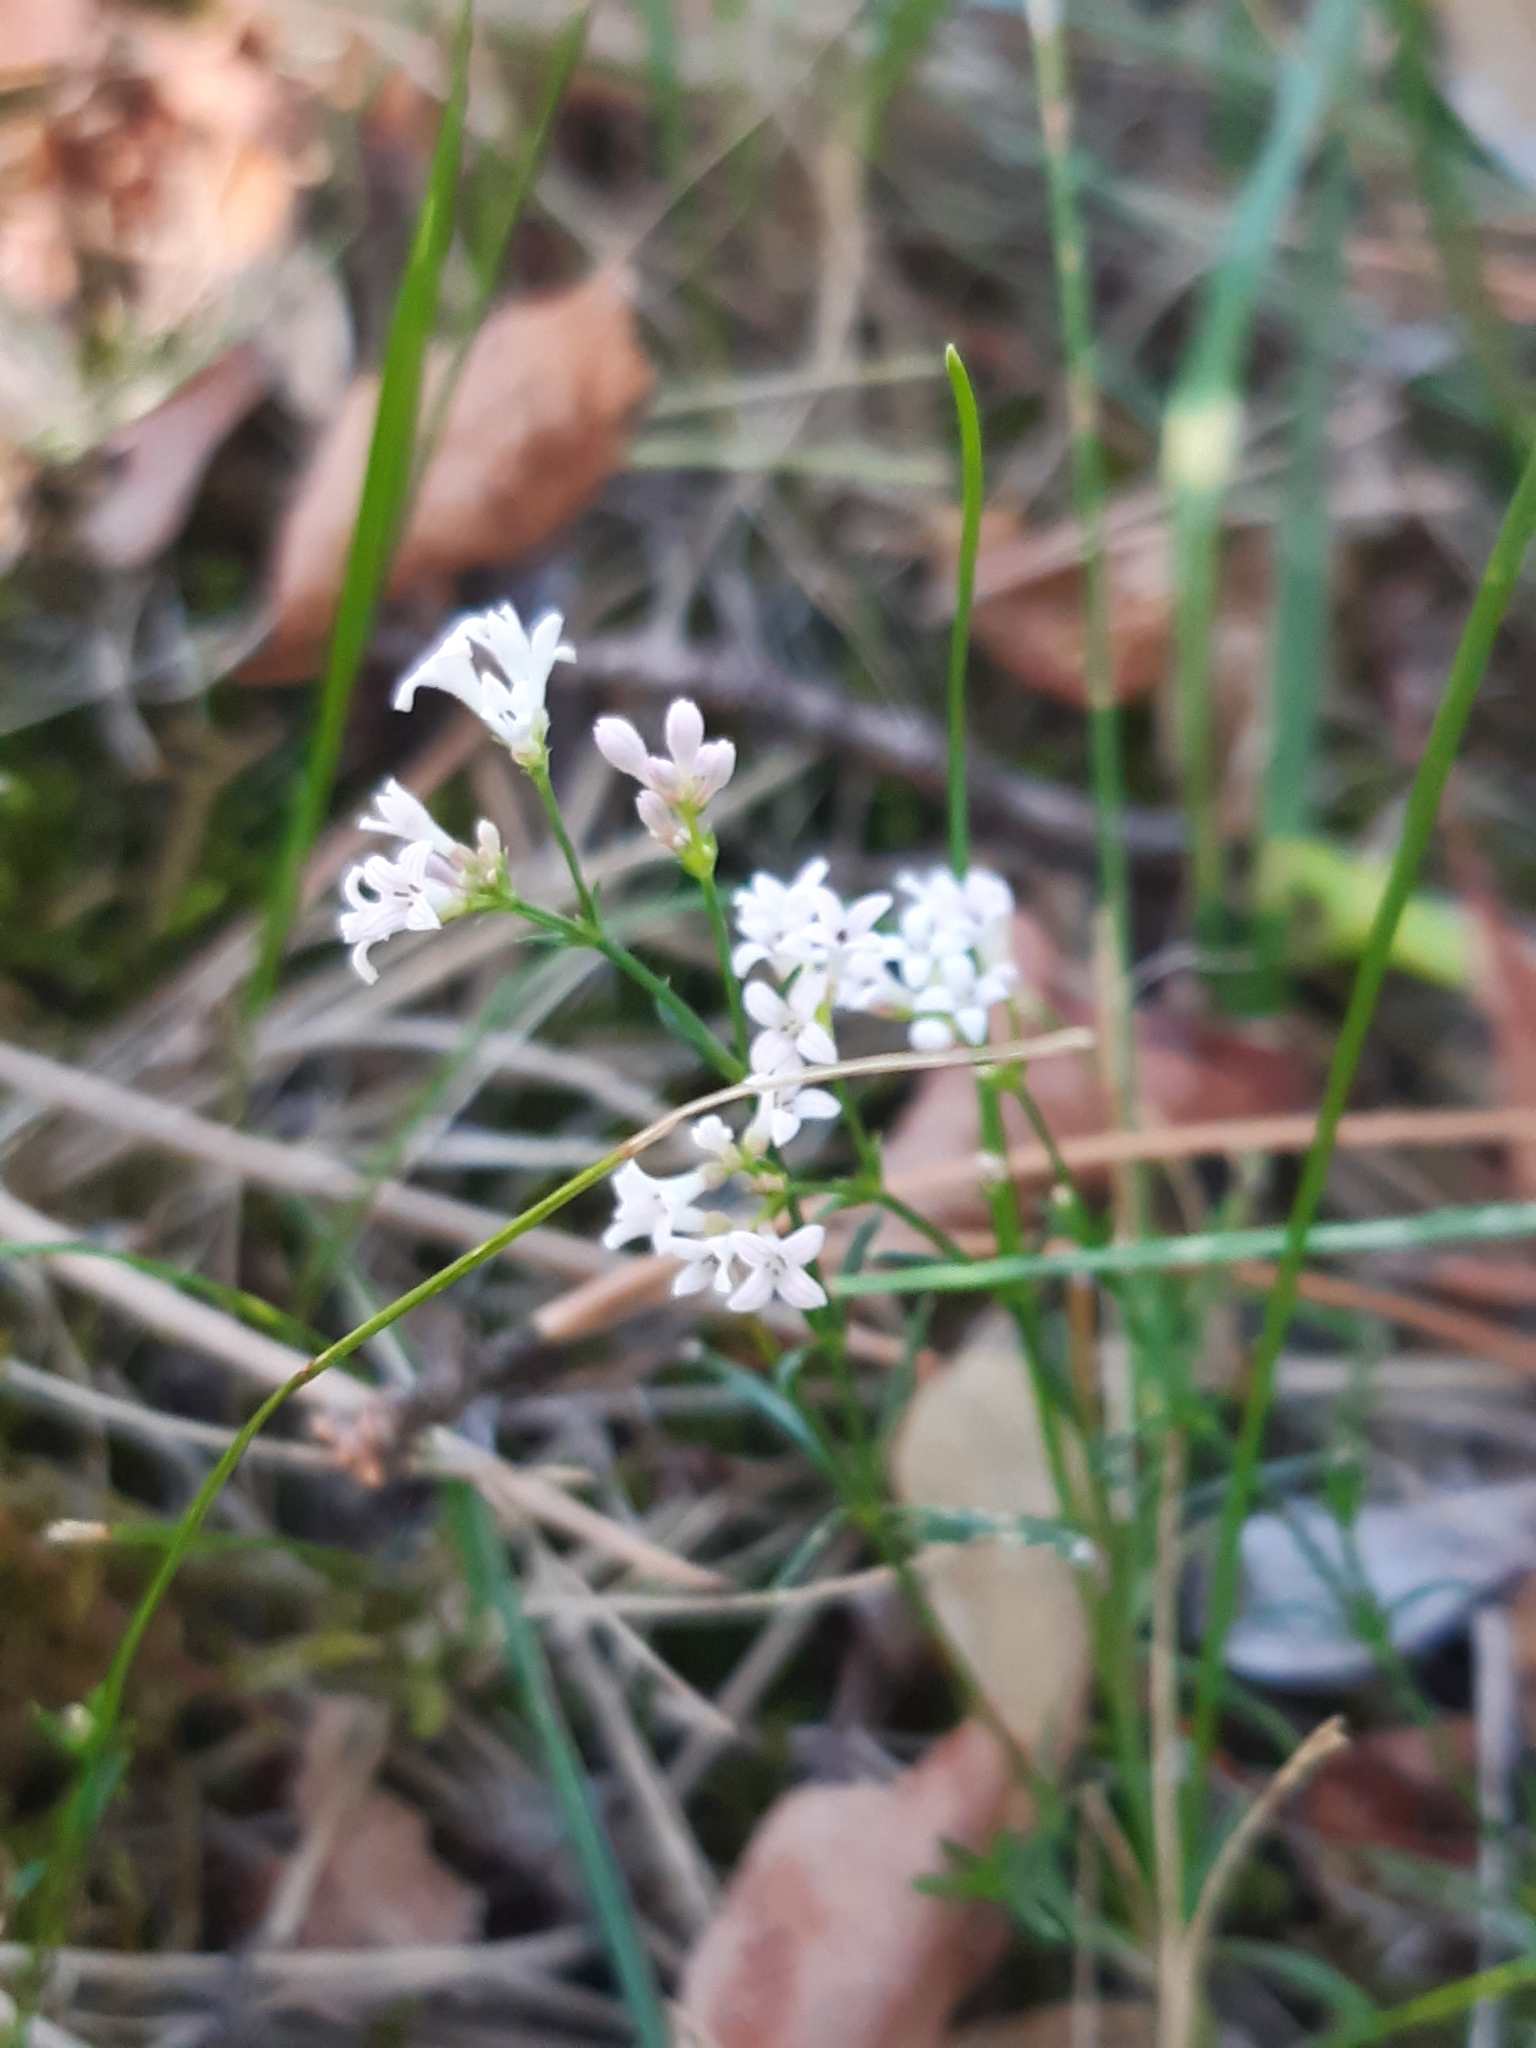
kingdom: Plantae
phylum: Tracheophyta
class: Magnoliopsida
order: Gentianales
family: Rubiaceae
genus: Cynanchica
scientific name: Cynanchica pyrenaica
